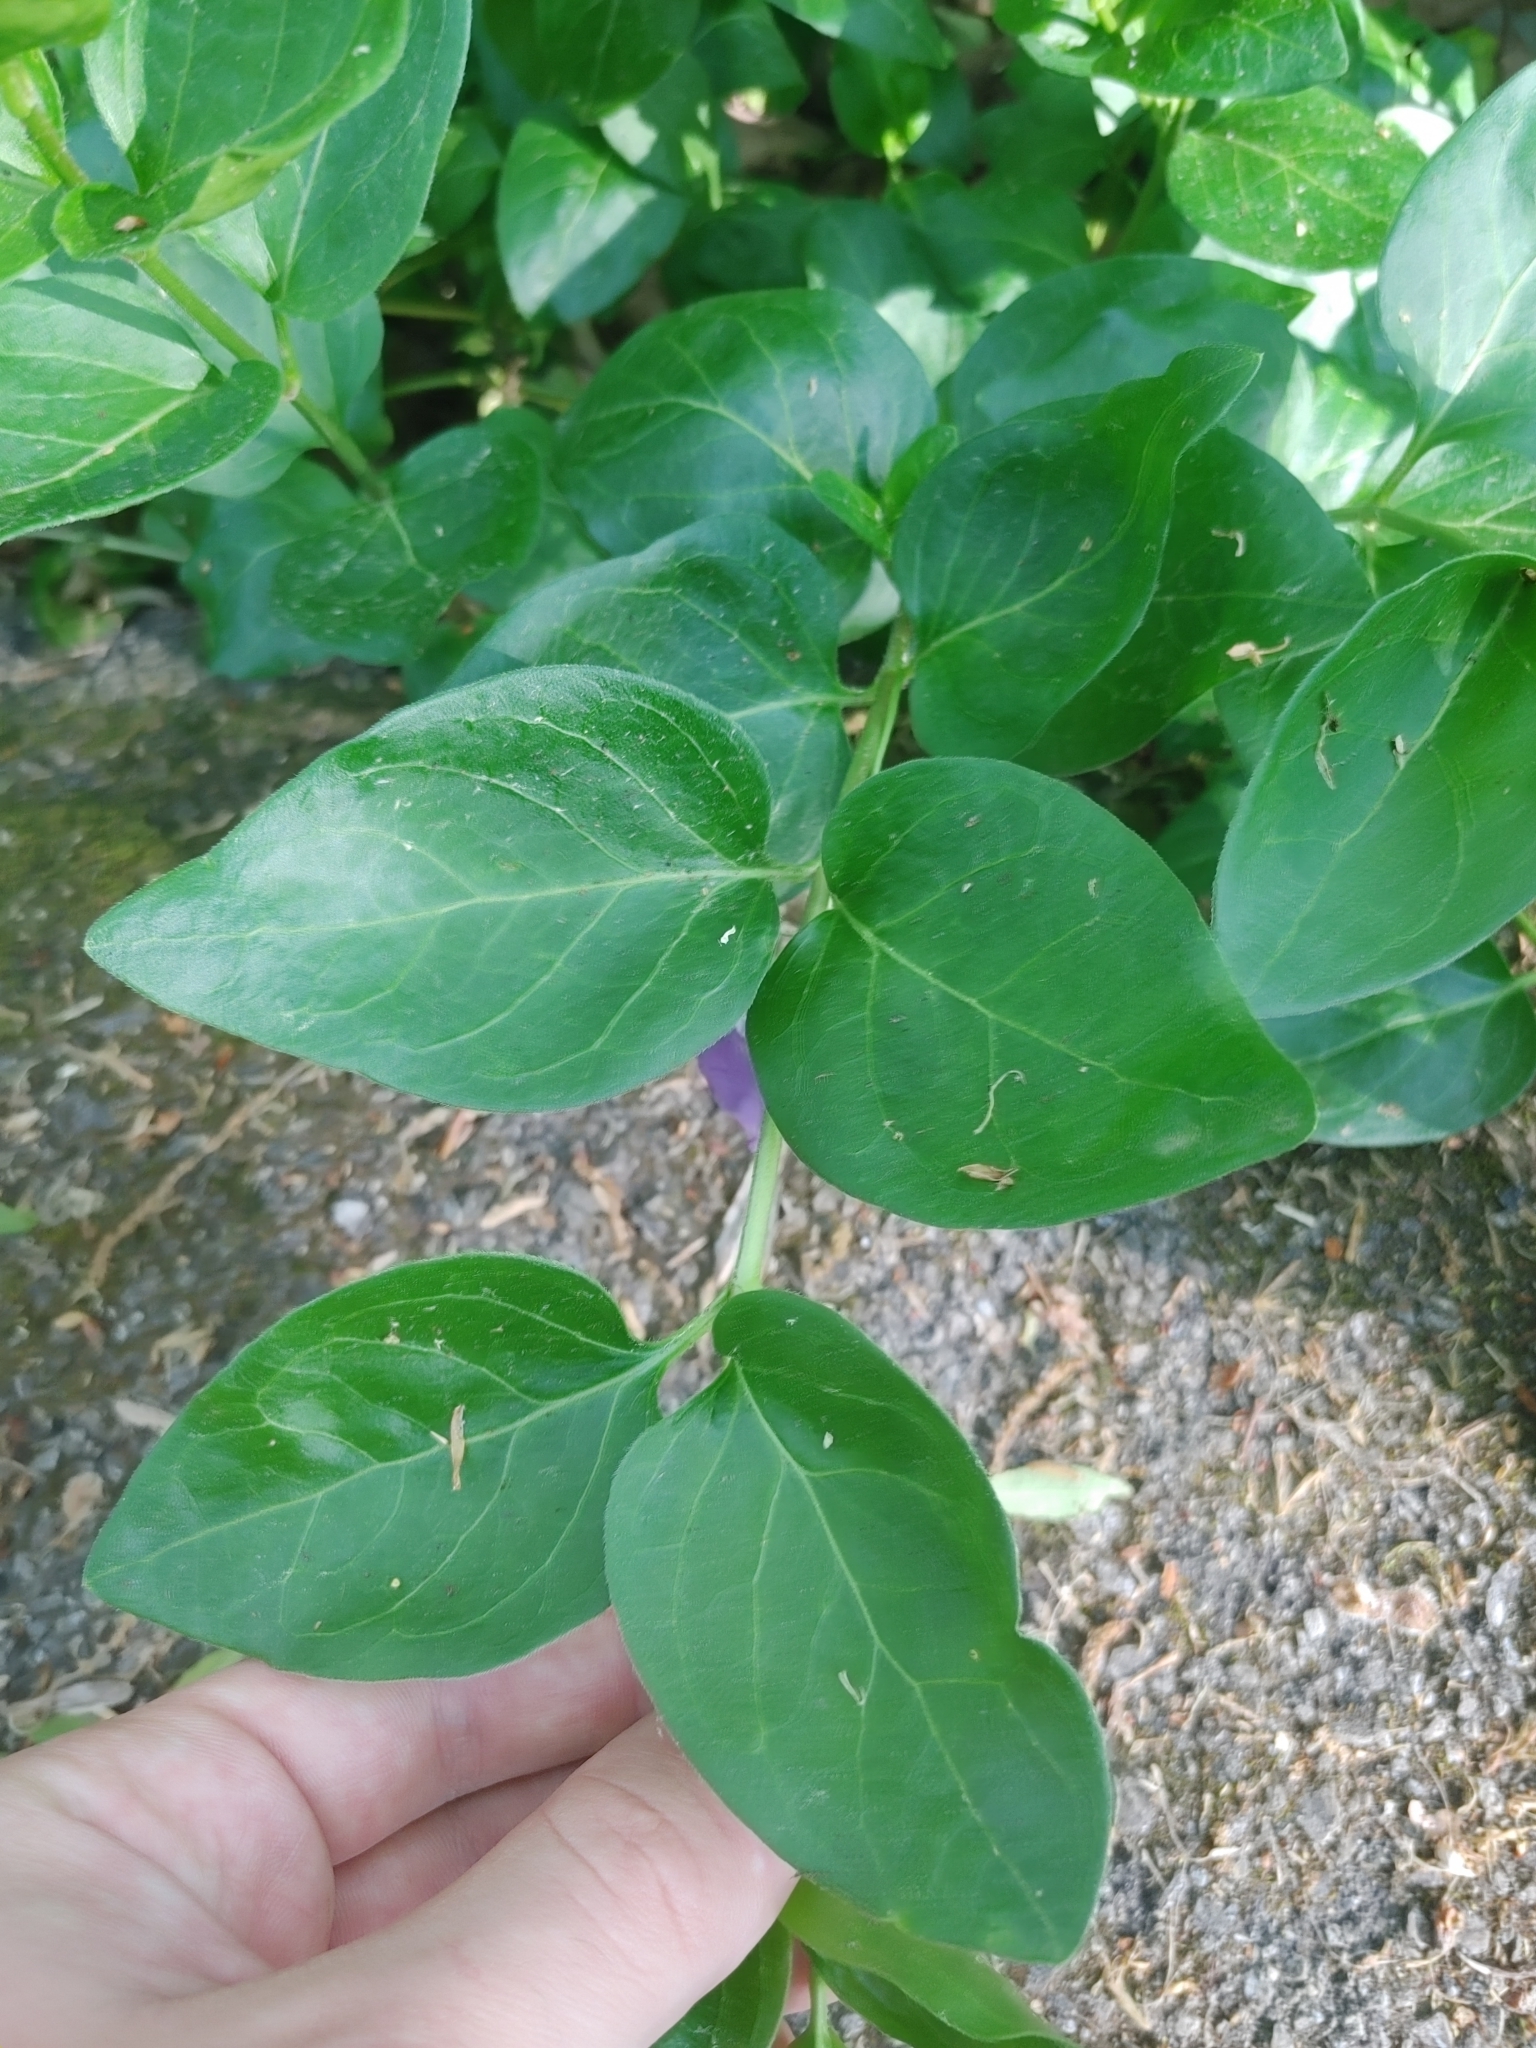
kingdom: Plantae
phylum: Tracheophyta
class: Magnoliopsida
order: Gentianales
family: Apocynaceae
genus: Vinca
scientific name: Vinca major
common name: Greater periwinkle
